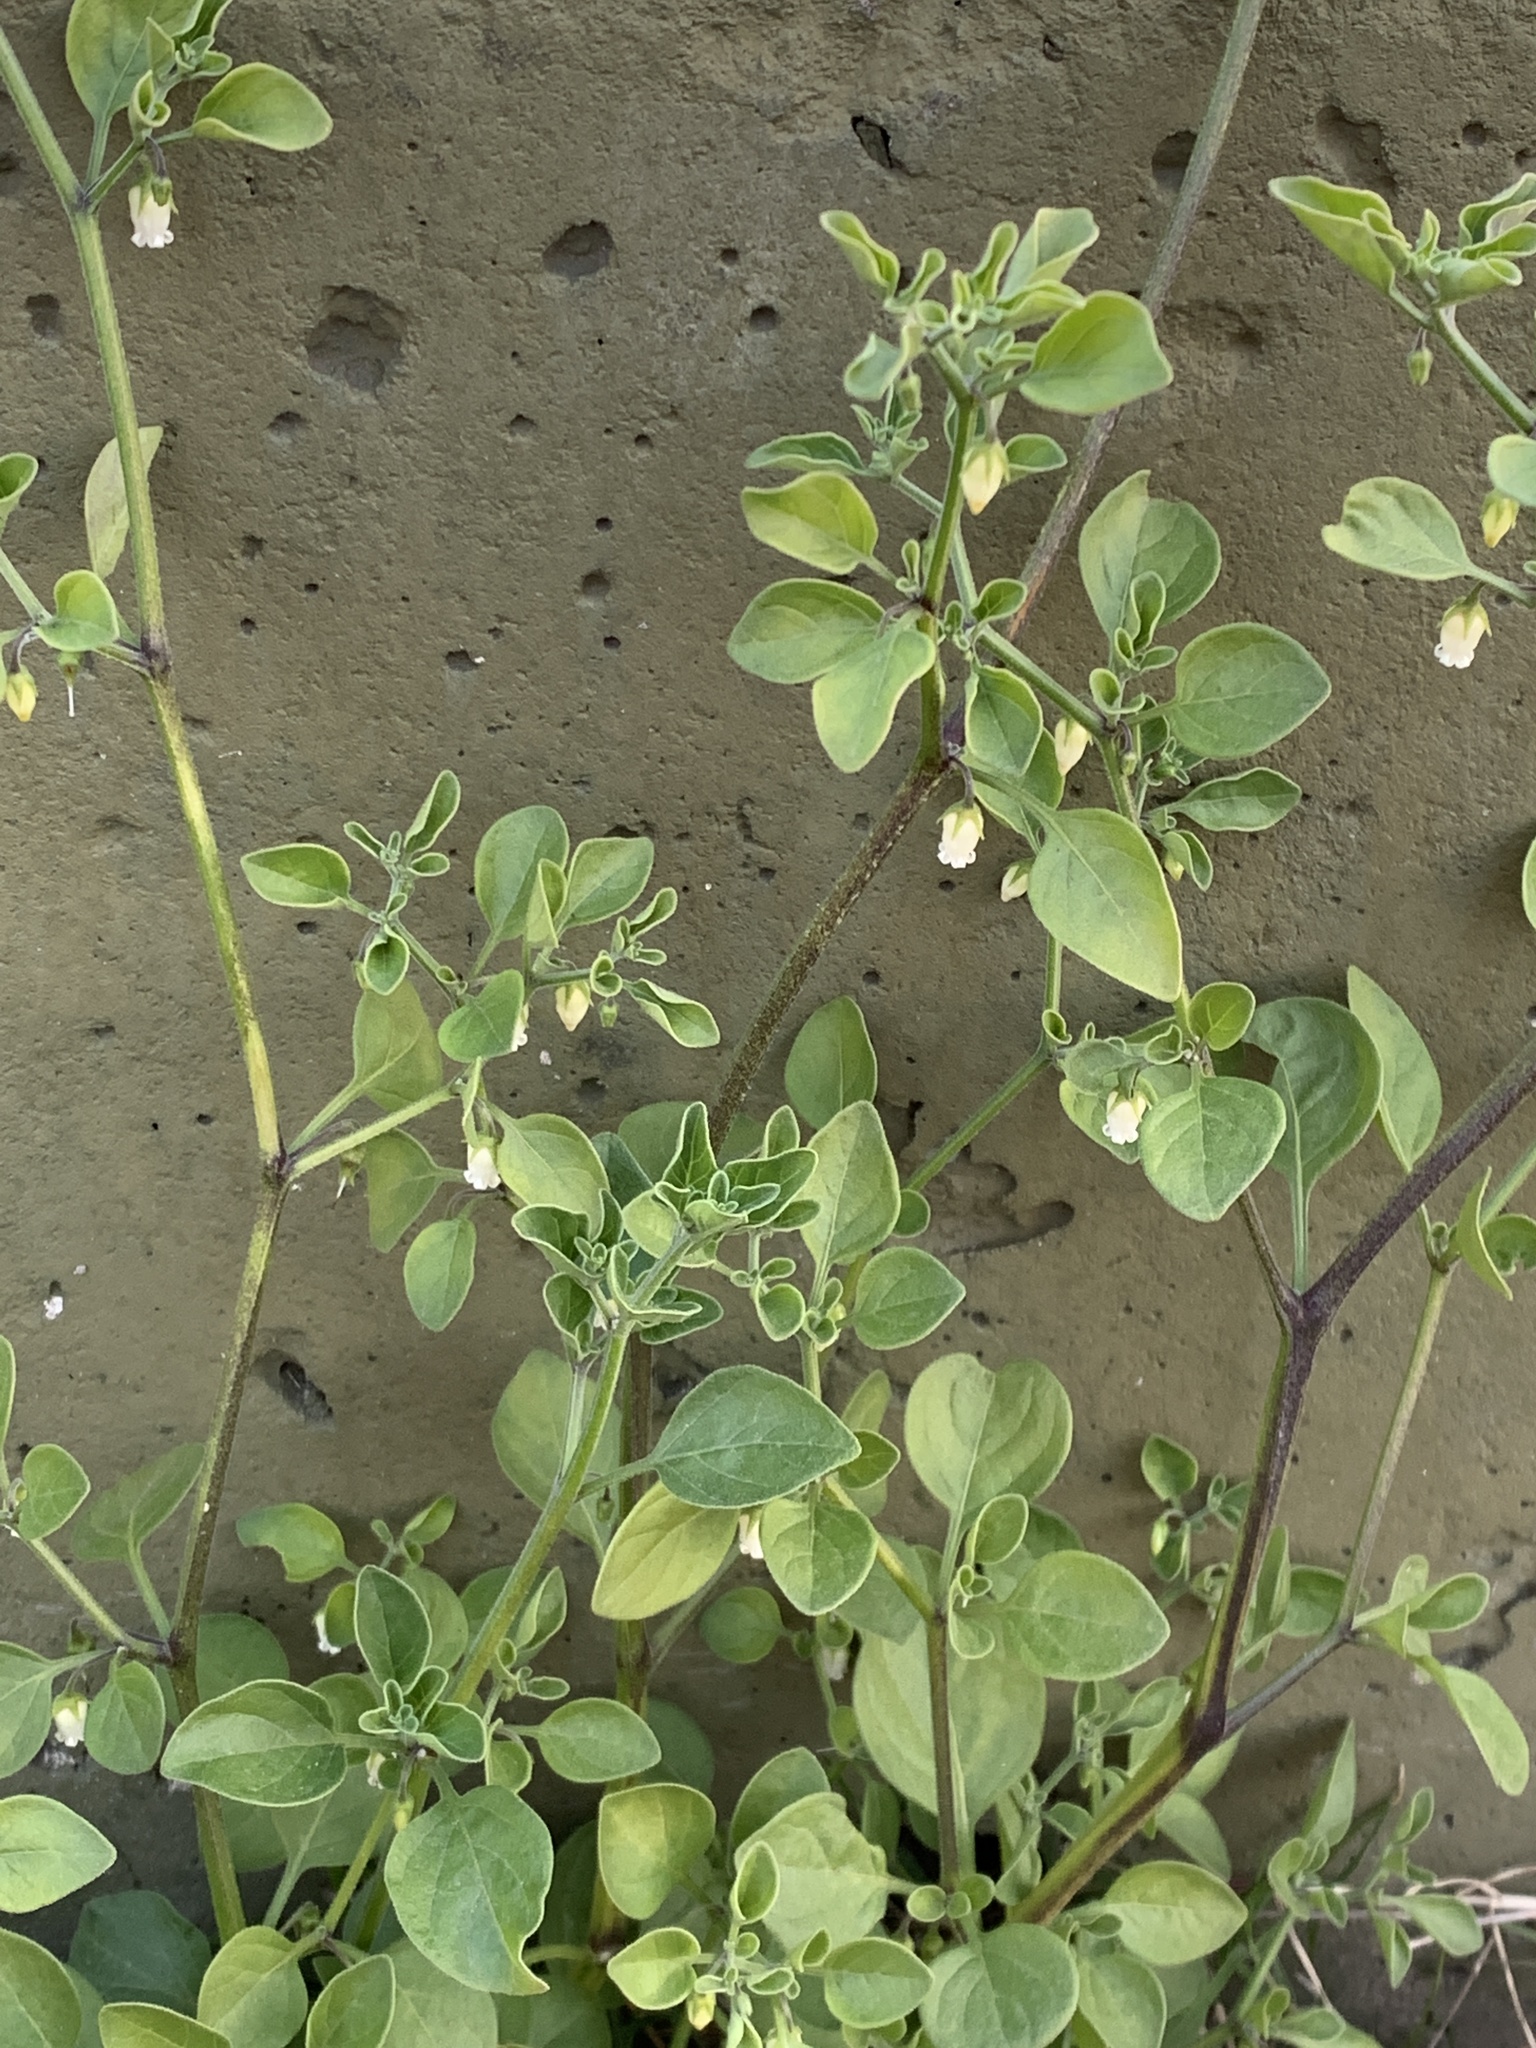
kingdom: Plantae
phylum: Tracheophyta
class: Magnoliopsida
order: Solanales
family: Solanaceae
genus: Salpichroa
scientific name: Salpichroa origanifolia
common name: Lily-of-the-valley-vine
